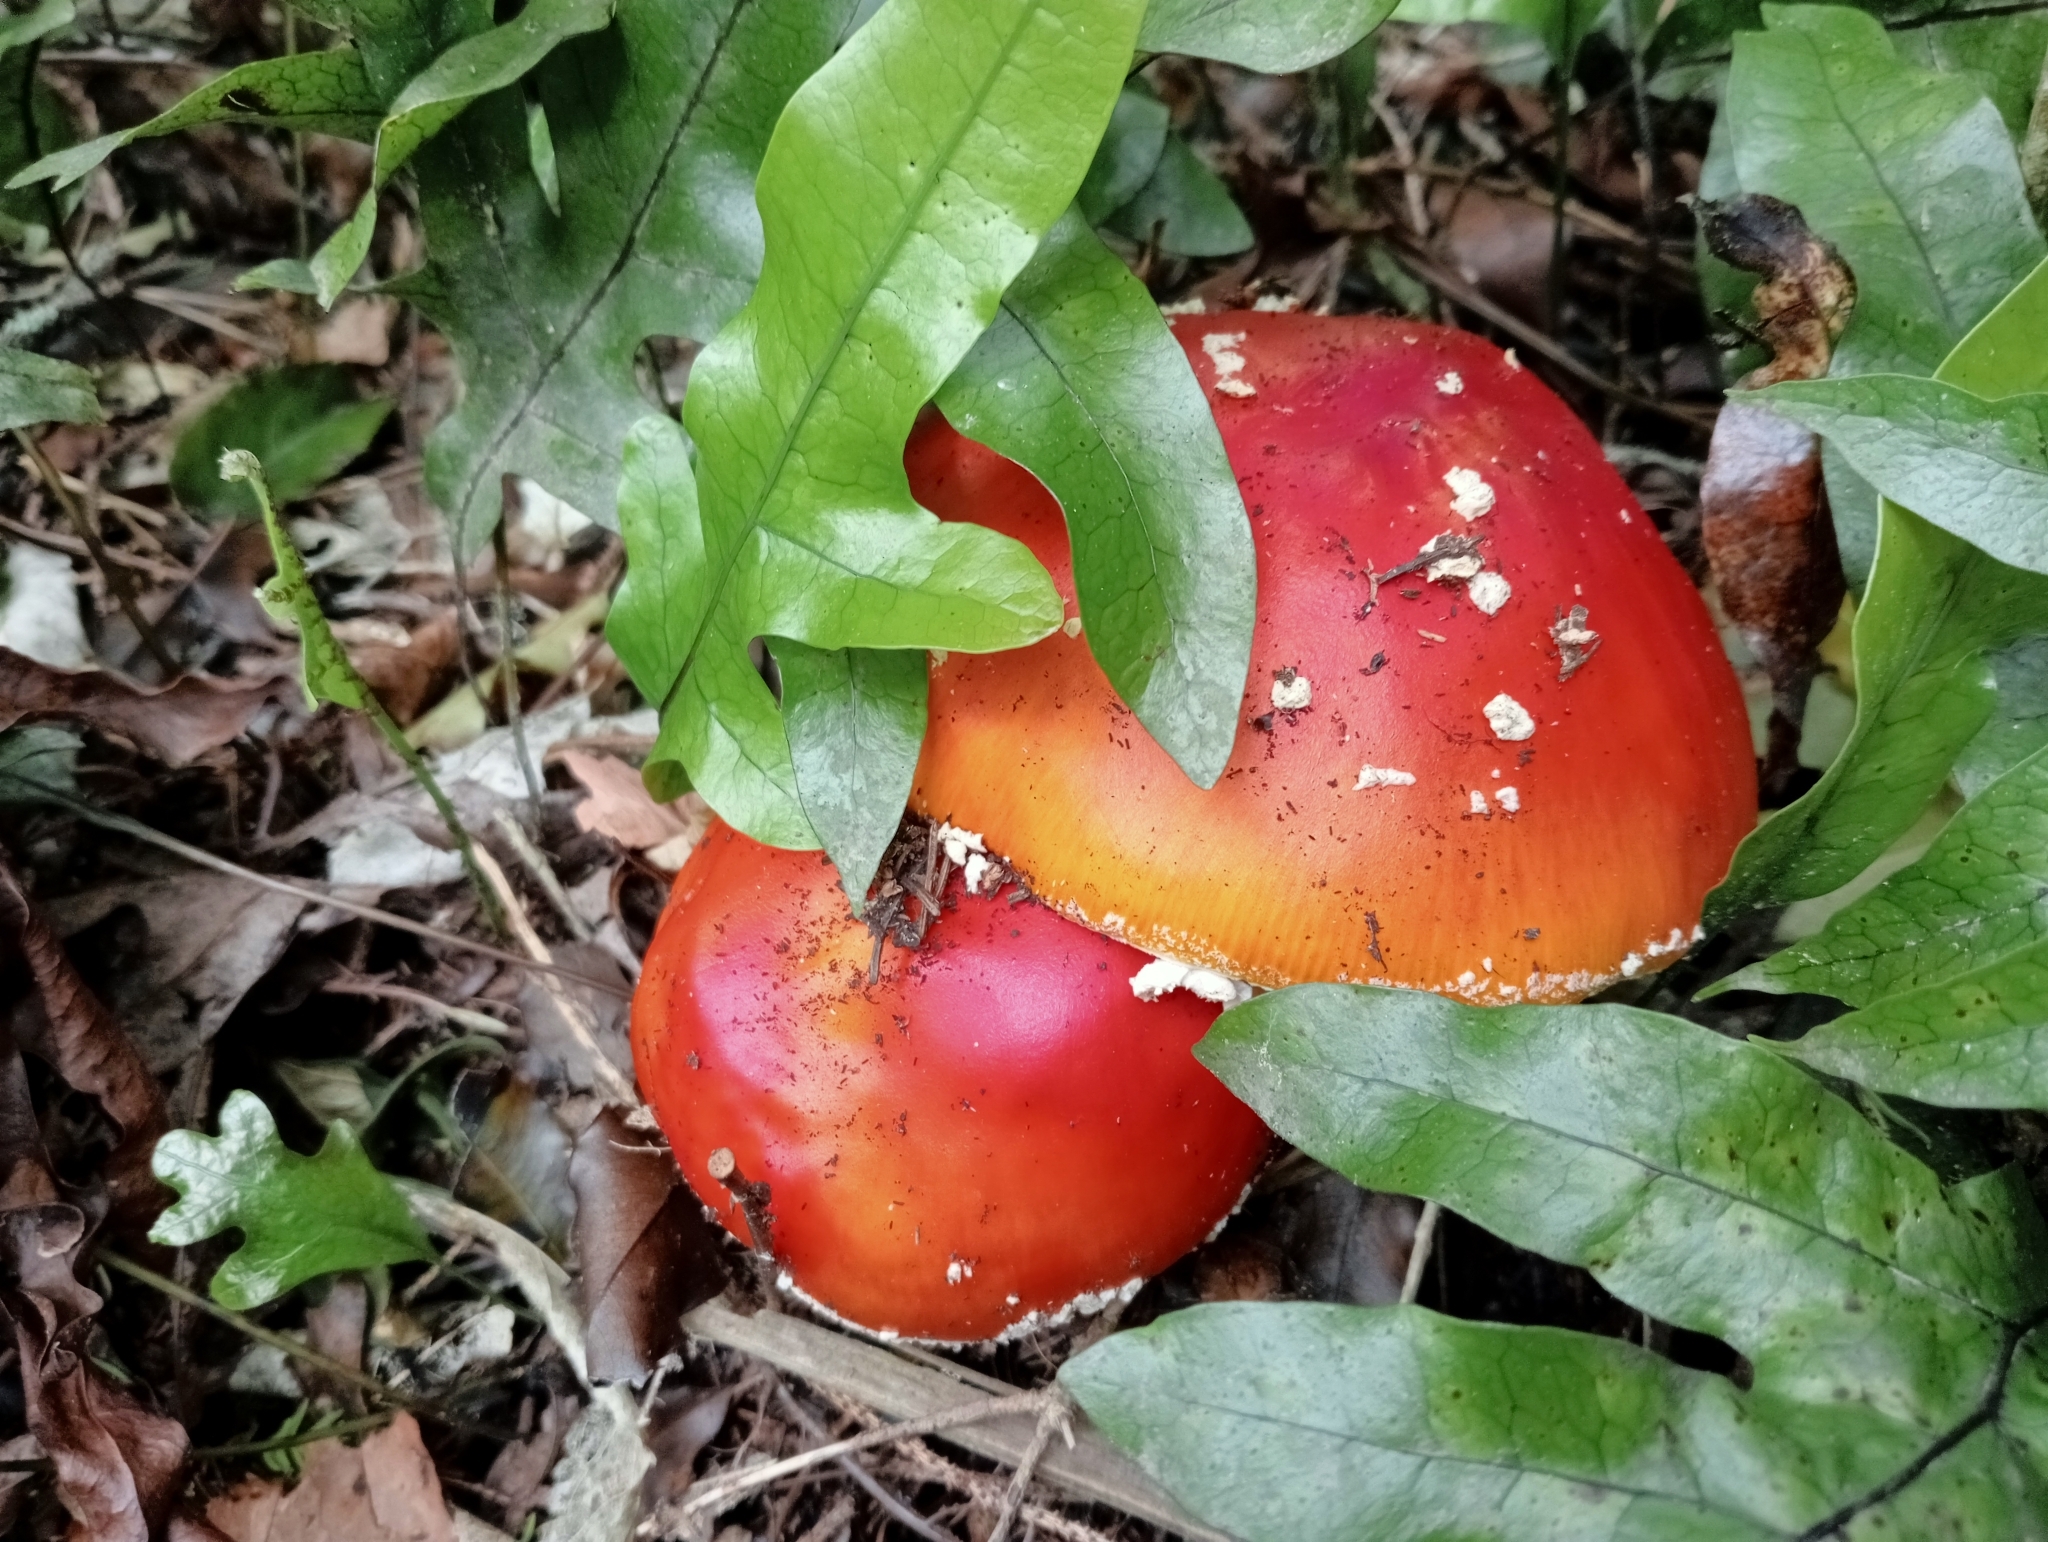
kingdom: Fungi
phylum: Basidiomycota
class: Agaricomycetes
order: Agaricales
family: Amanitaceae
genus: Amanita
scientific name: Amanita muscaria
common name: Fly agaric
